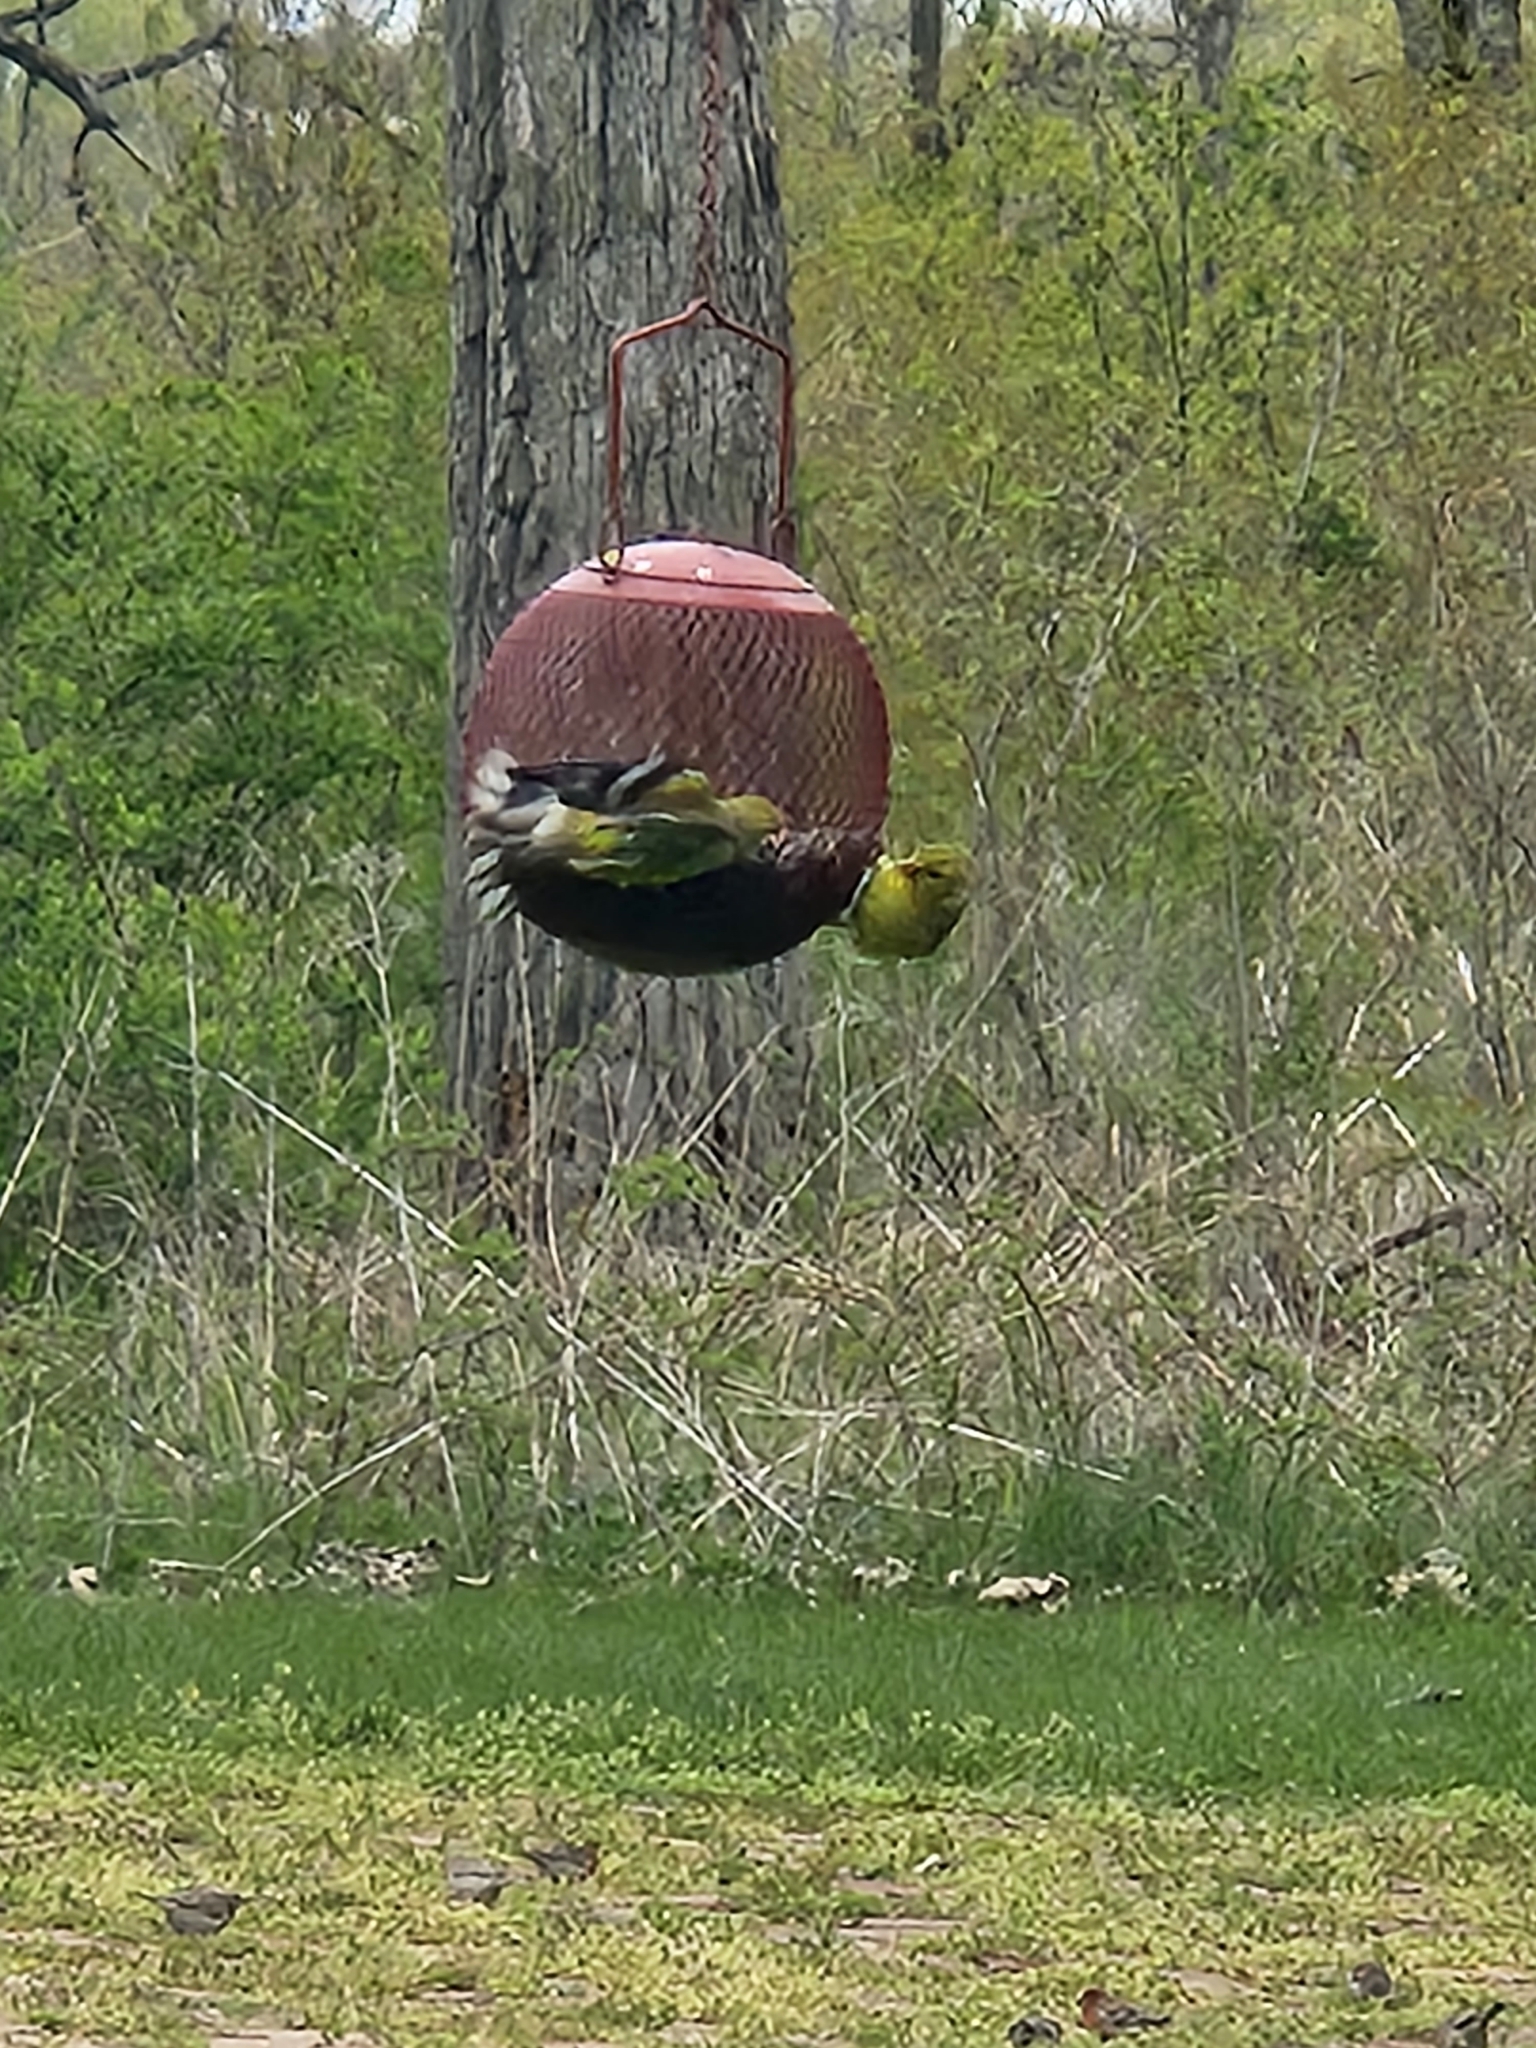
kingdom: Animalia
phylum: Chordata
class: Aves
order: Passeriformes
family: Fringillidae
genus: Spinus
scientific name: Spinus tristis
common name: American goldfinch
